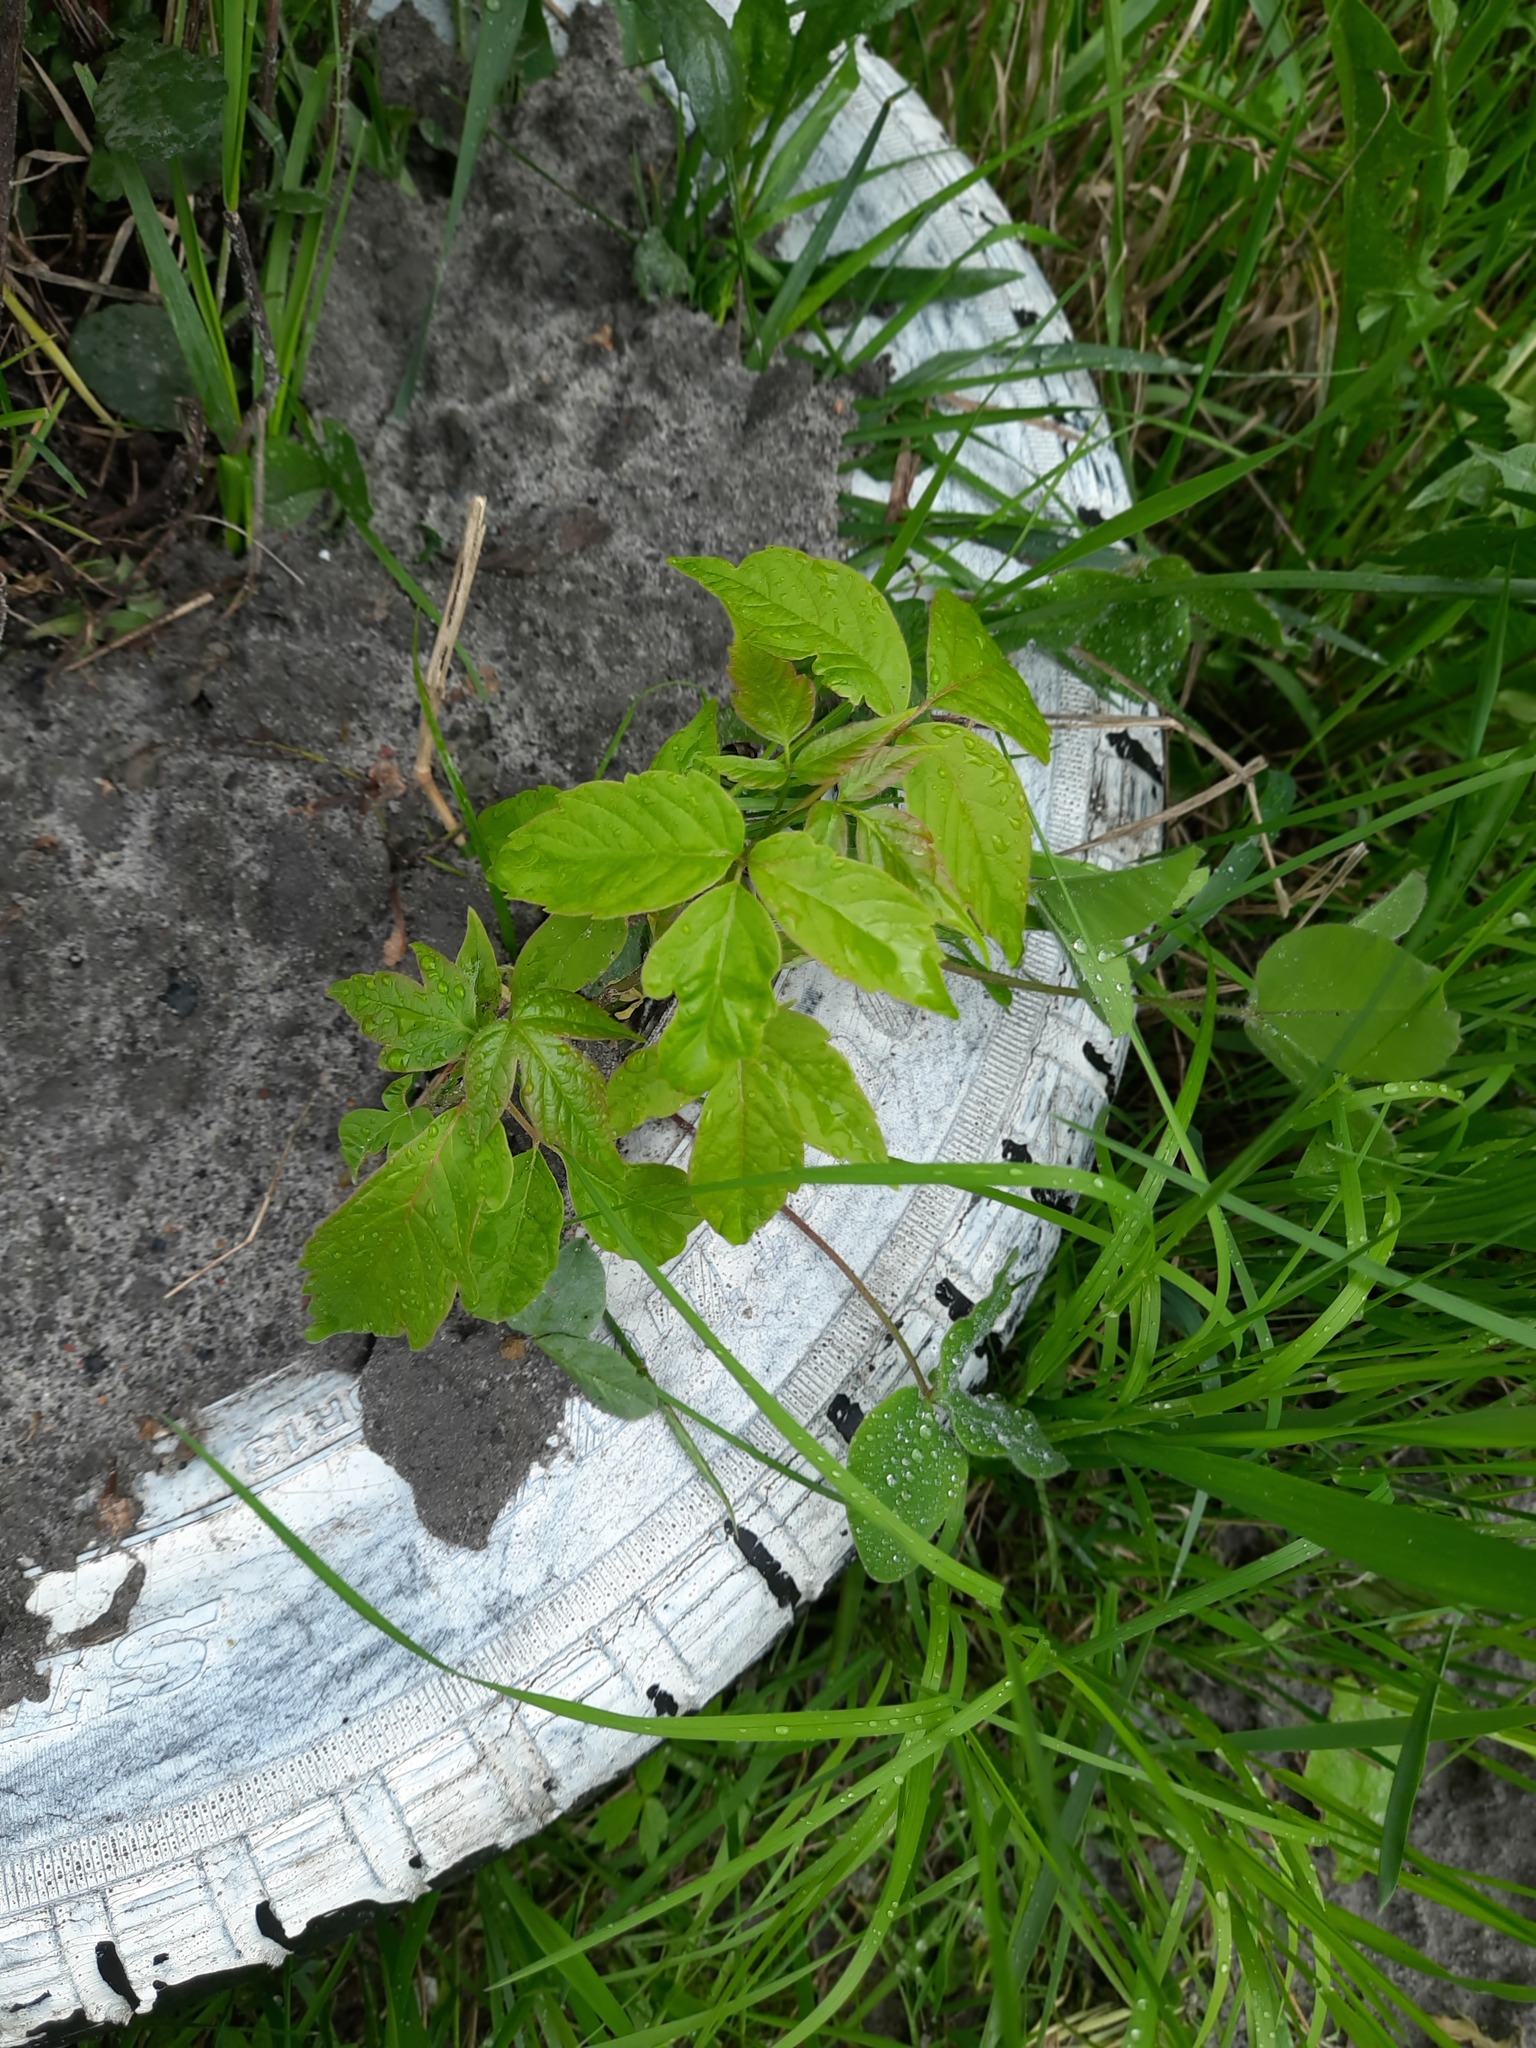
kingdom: Plantae
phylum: Tracheophyta
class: Magnoliopsida
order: Sapindales
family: Sapindaceae
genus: Acer
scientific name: Acer negundo
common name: Ashleaf maple
